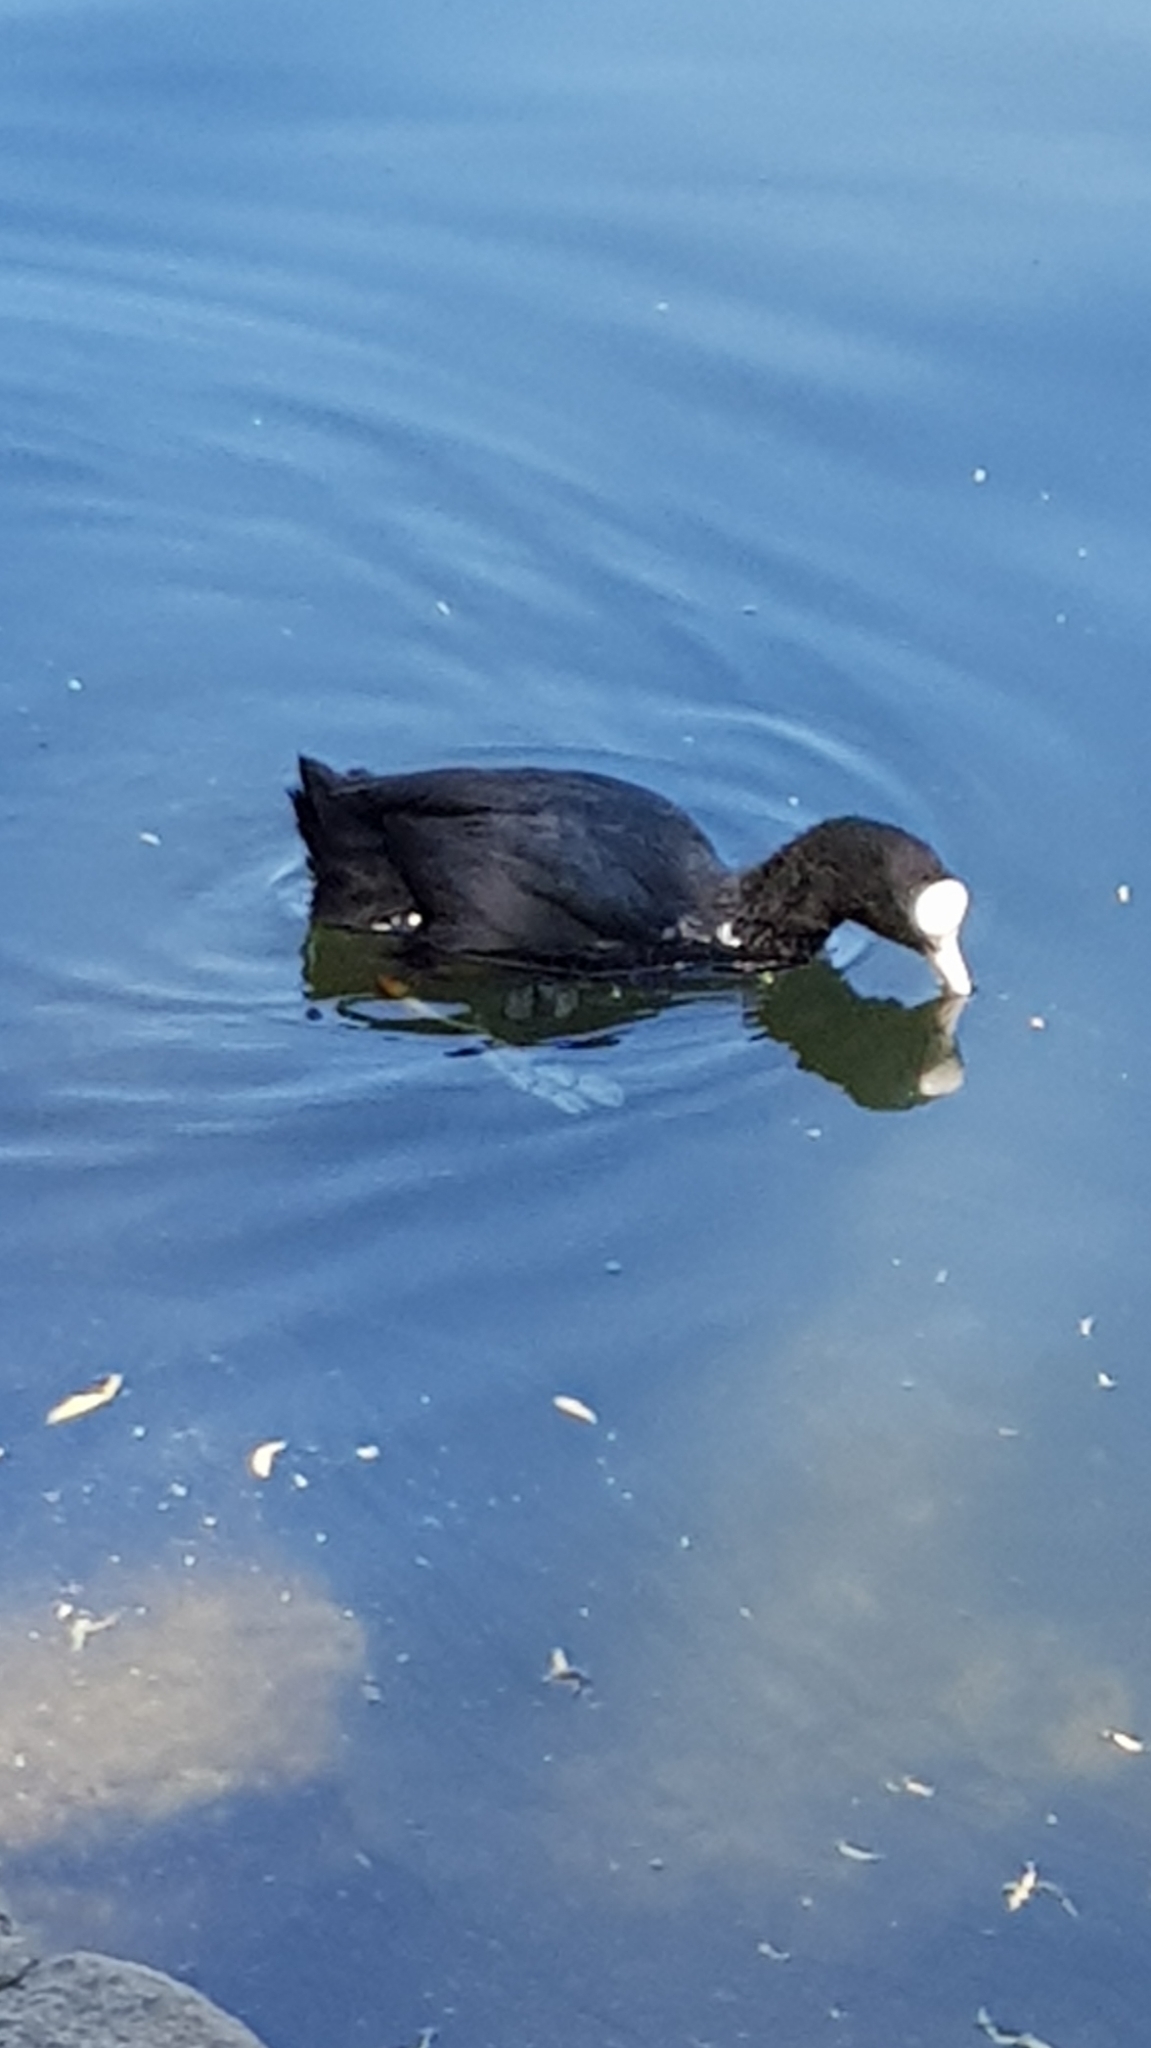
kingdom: Animalia
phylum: Chordata
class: Aves
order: Gruiformes
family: Rallidae
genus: Fulica
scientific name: Fulica atra
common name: Eurasian coot
